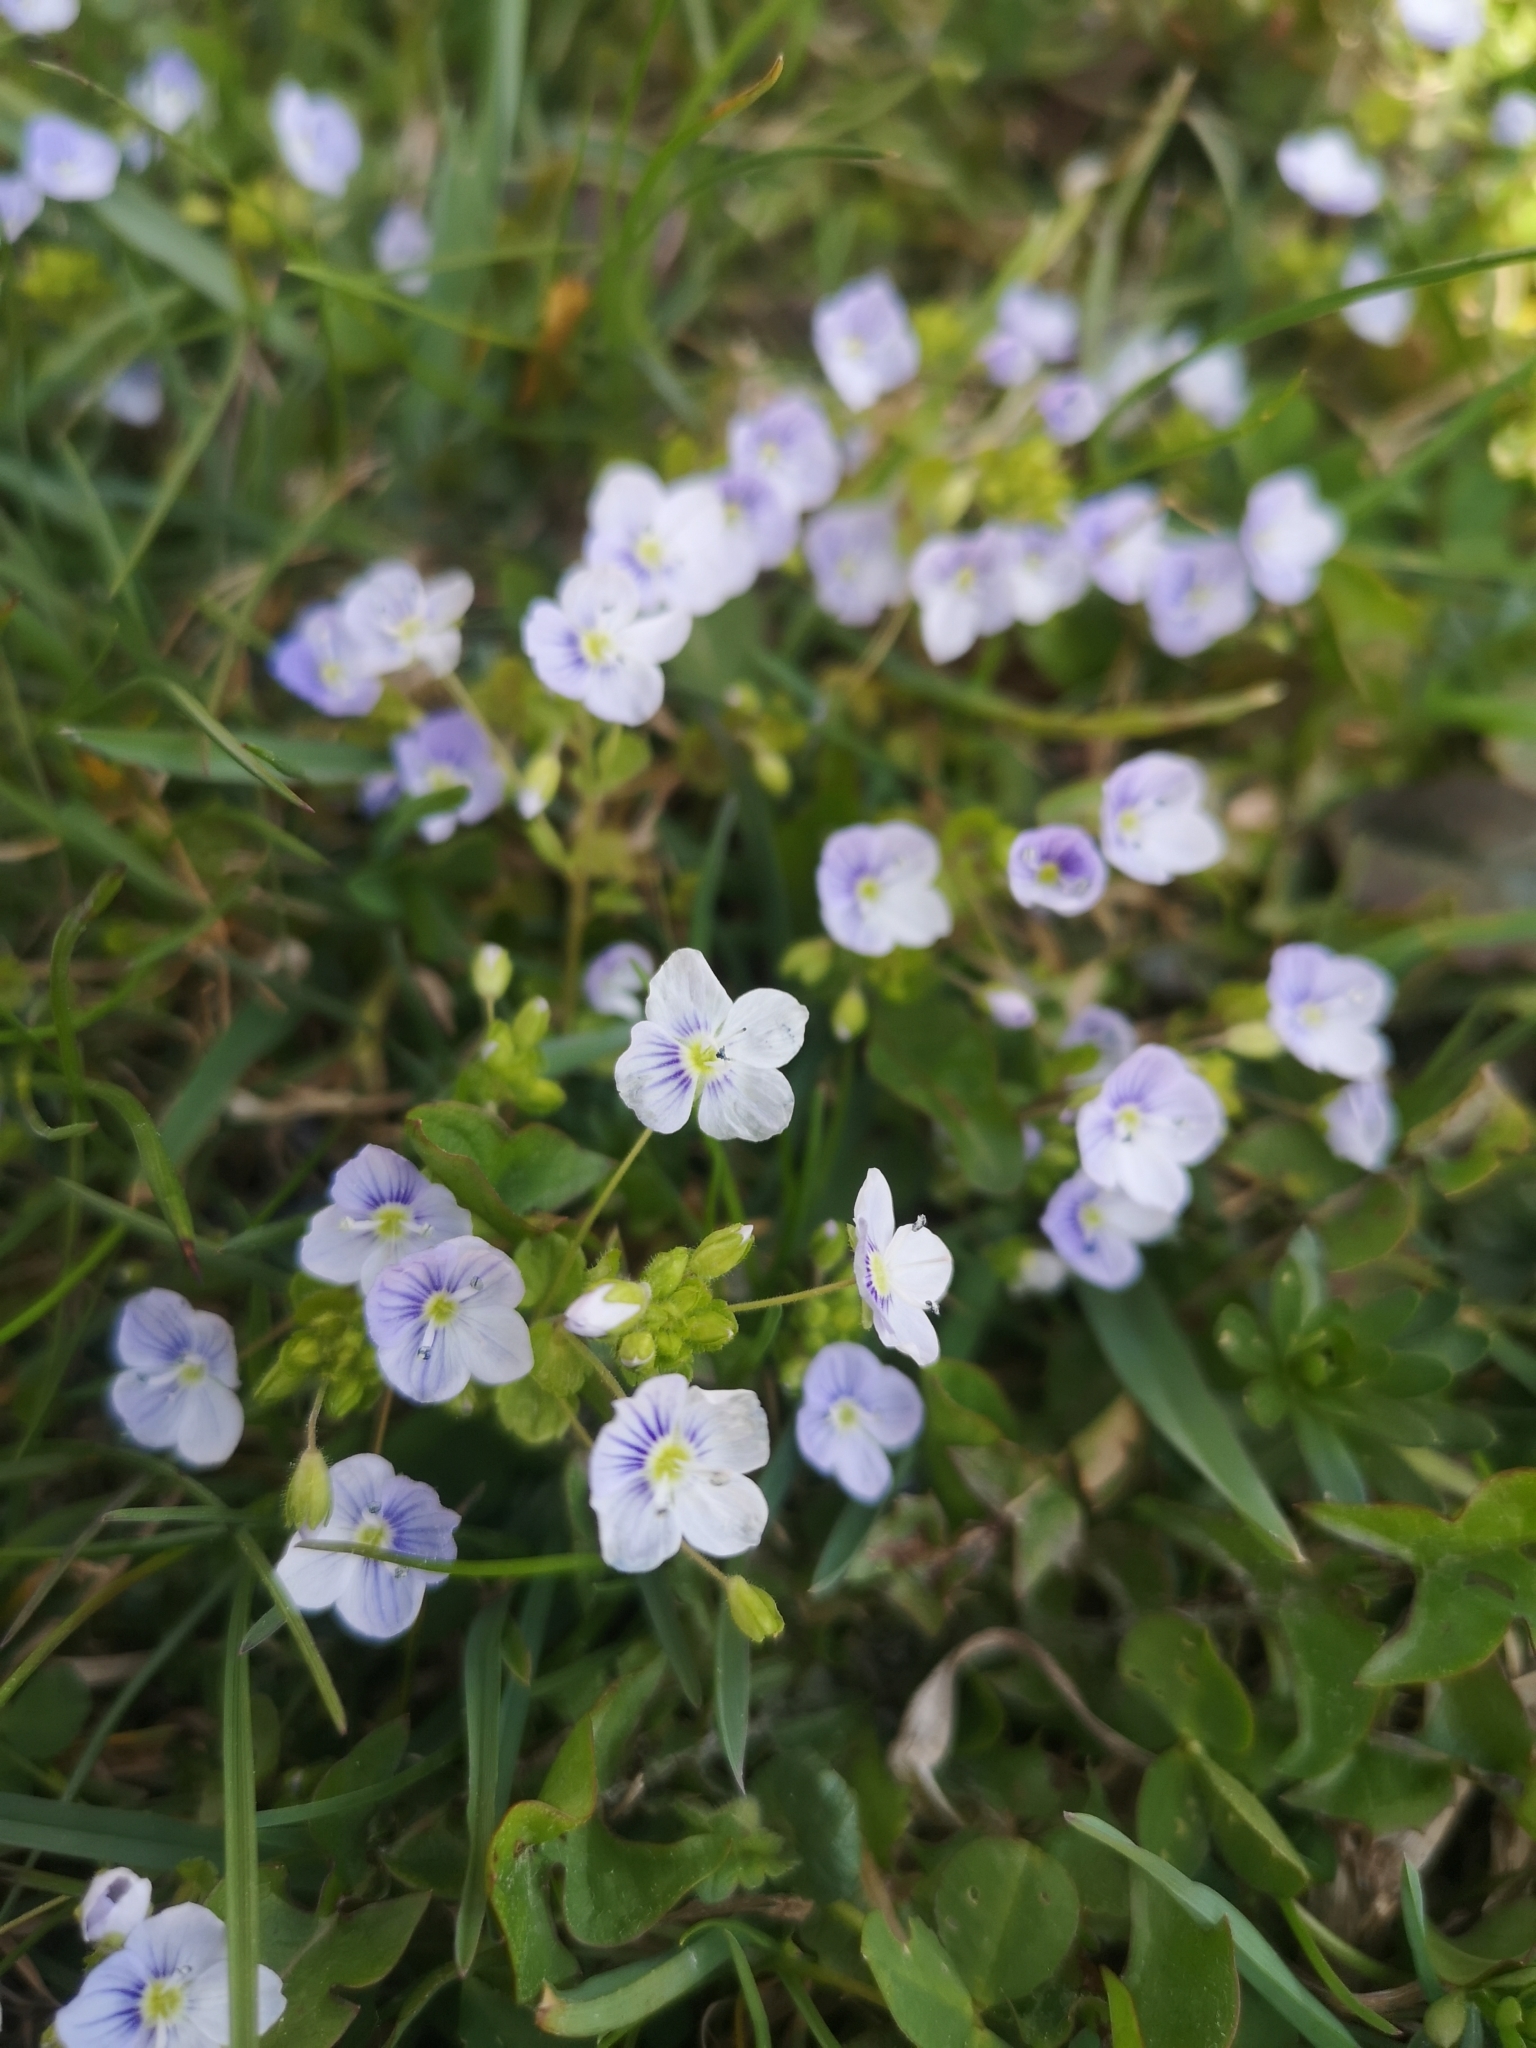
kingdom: Plantae
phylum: Tracheophyta
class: Magnoliopsida
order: Lamiales
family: Plantaginaceae
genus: Veronica
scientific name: Veronica filiformis
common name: Slender speedwell
